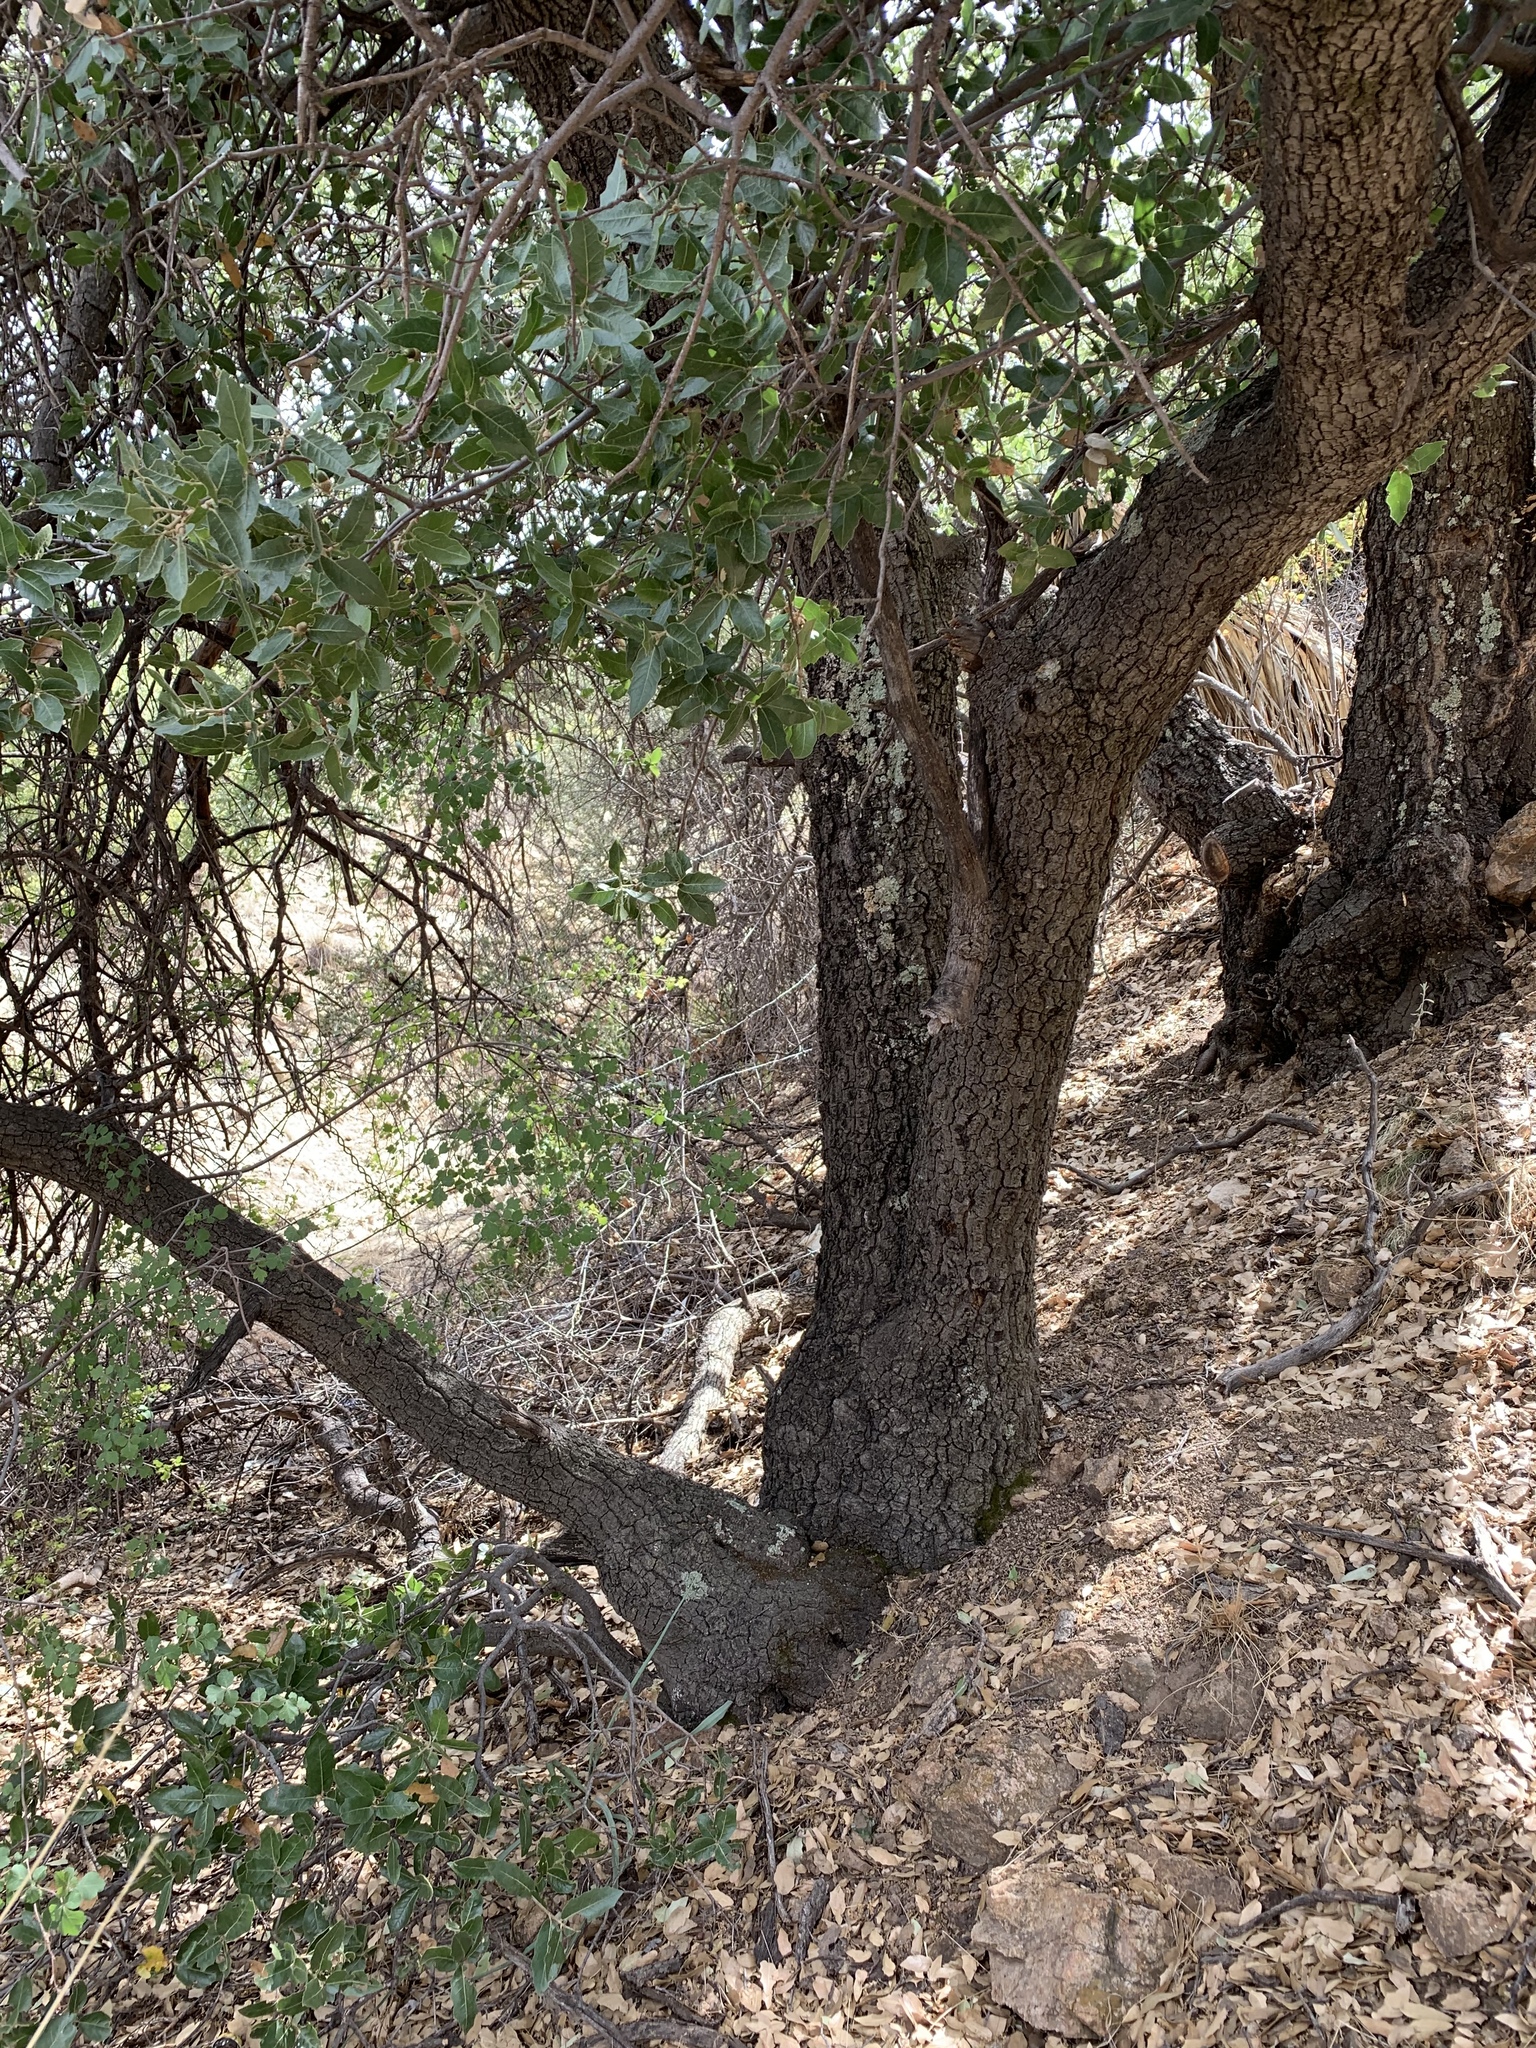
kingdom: Plantae
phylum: Tracheophyta
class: Magnoliopsida
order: Fagales
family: Fagaceae
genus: Quercus
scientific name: Quercus emoryi
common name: Emory oak
